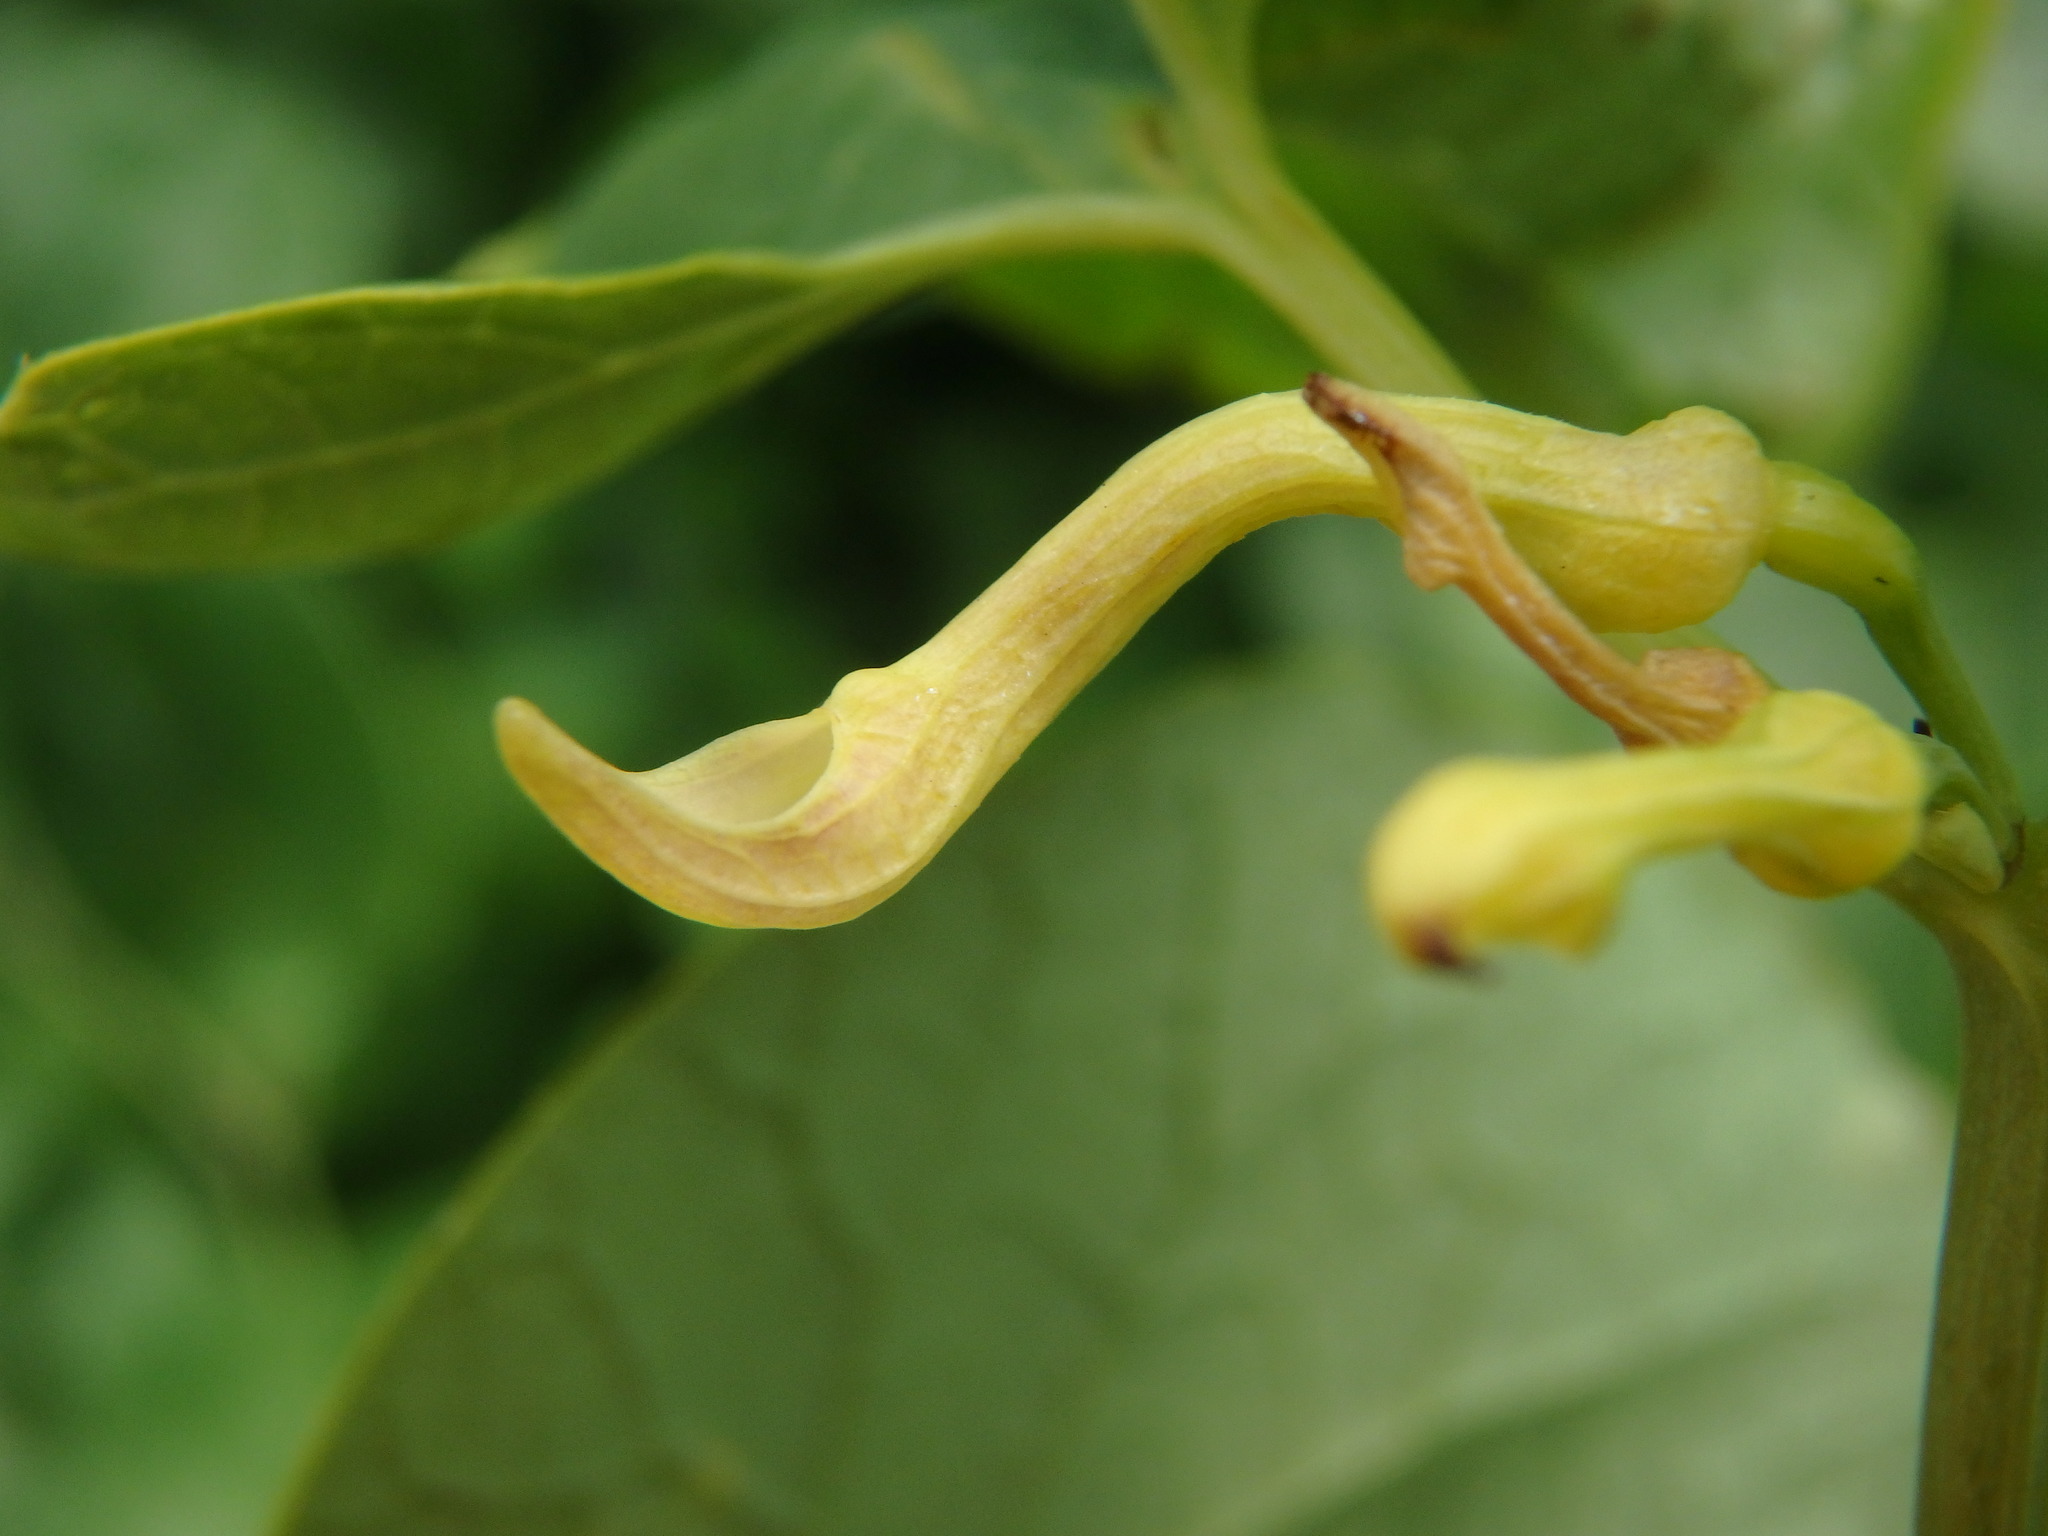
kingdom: Plantae
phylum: Tracheophyta
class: Magnoliopsida
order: Piperales
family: Aristolochiaceae
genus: Aristolochia
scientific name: Aristolochia clematitis
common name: Birthwort
